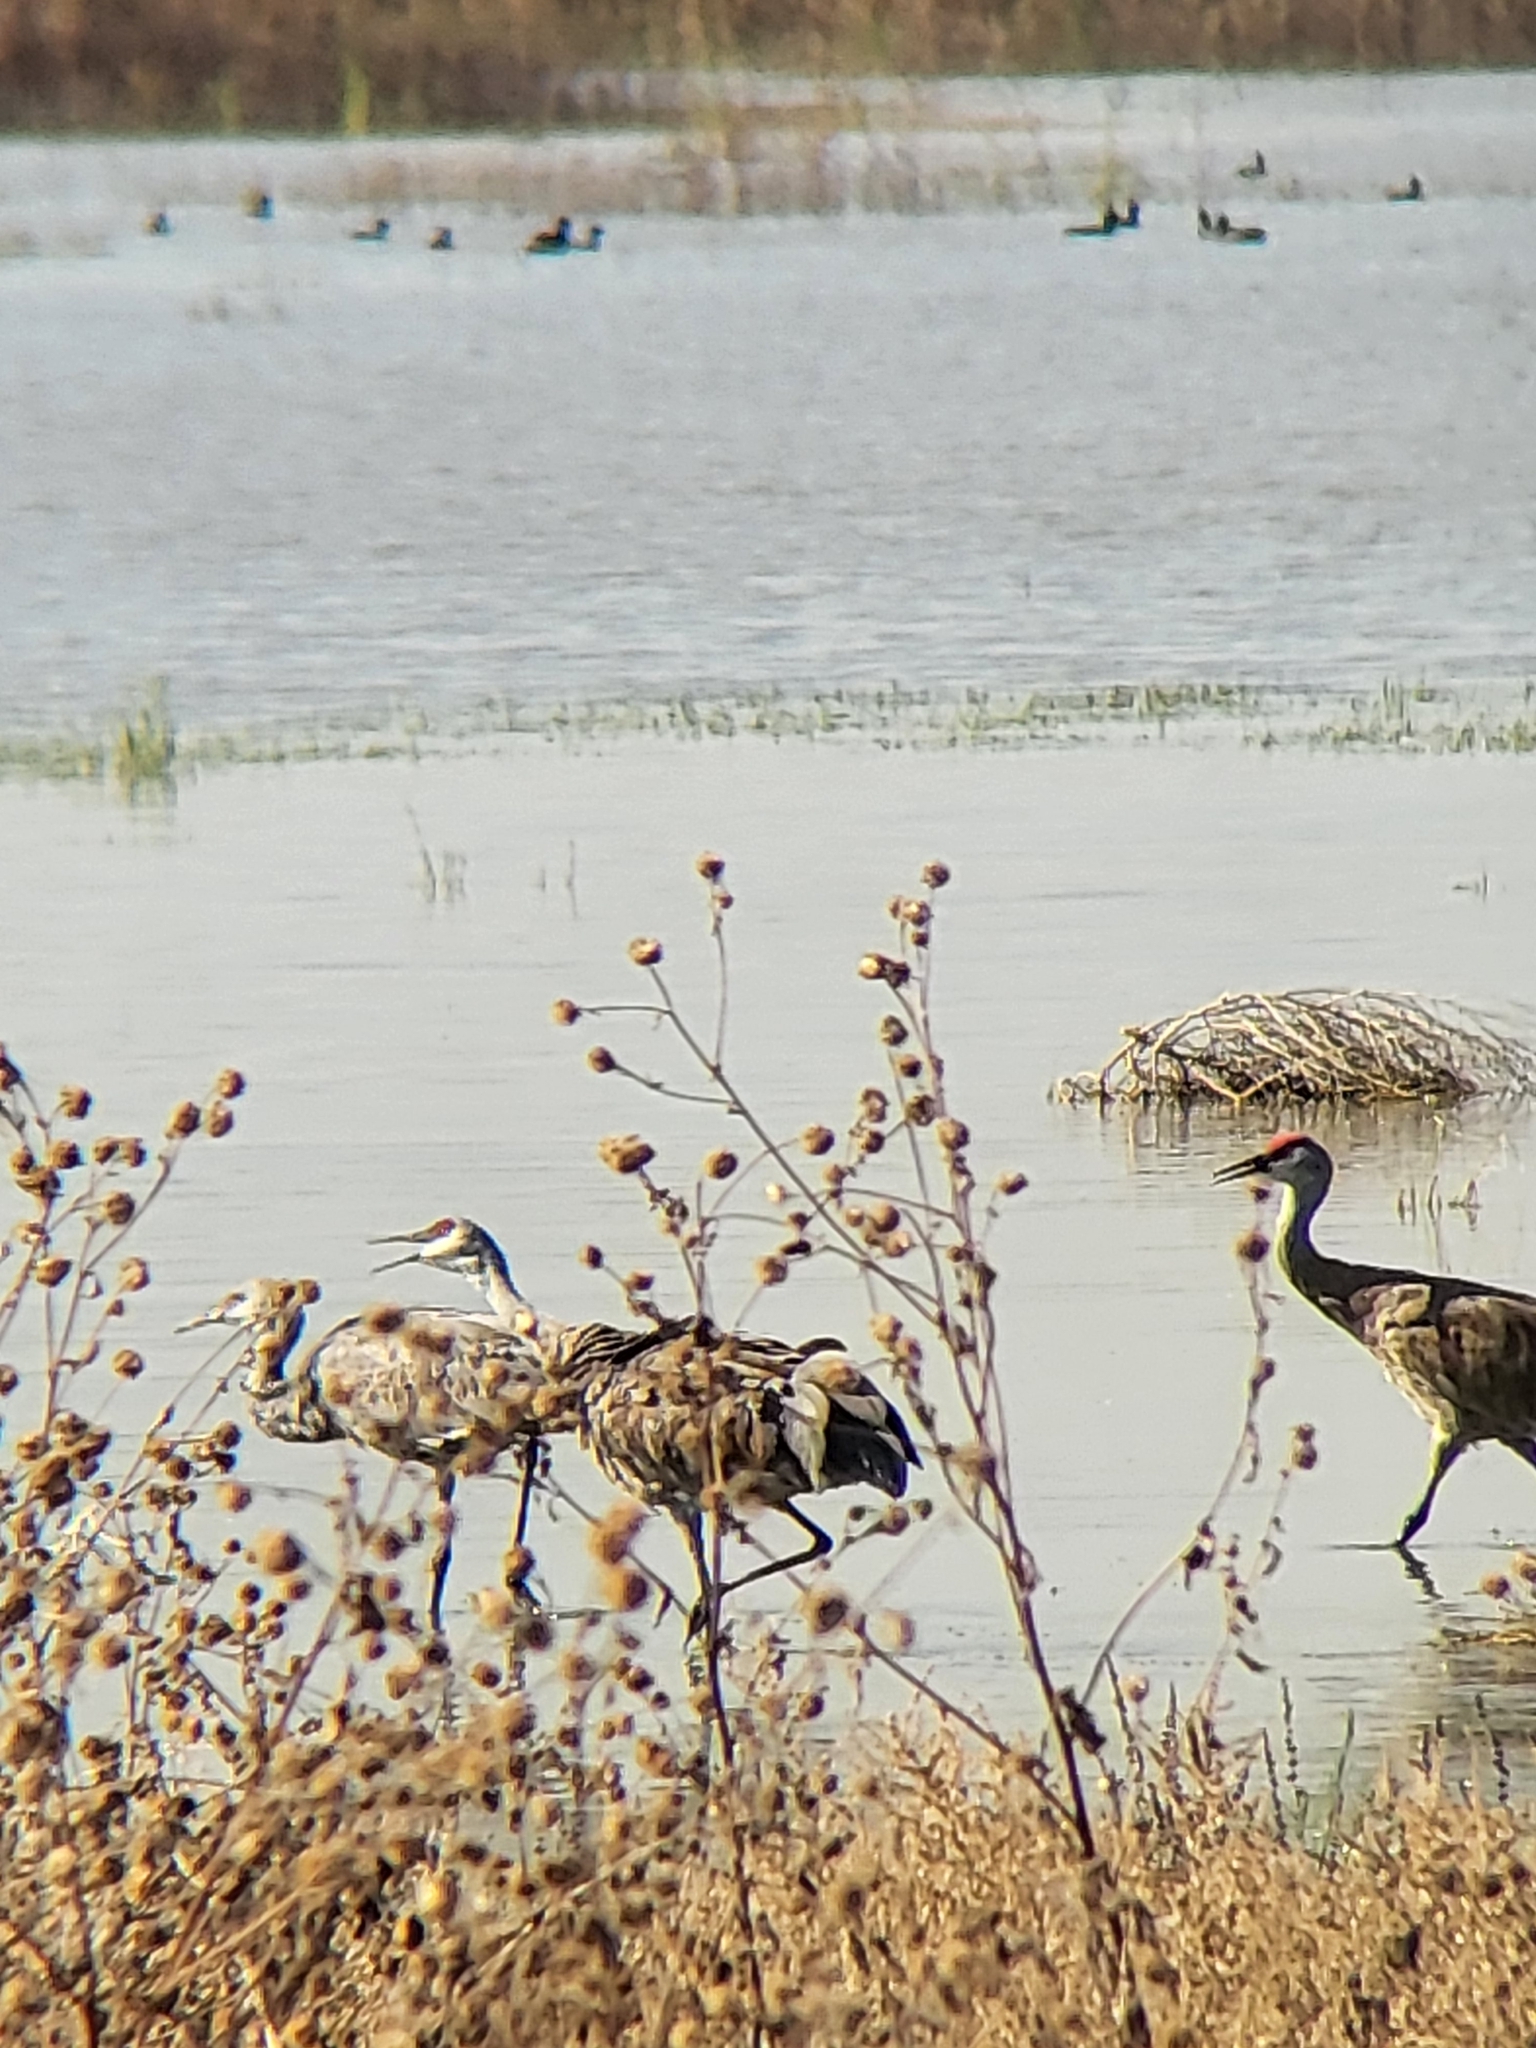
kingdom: Animalia
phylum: Chordata
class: Aves
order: Gruiformes
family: Gruidae
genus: Grus
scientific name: Grus canadensis
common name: Sandhill crane
